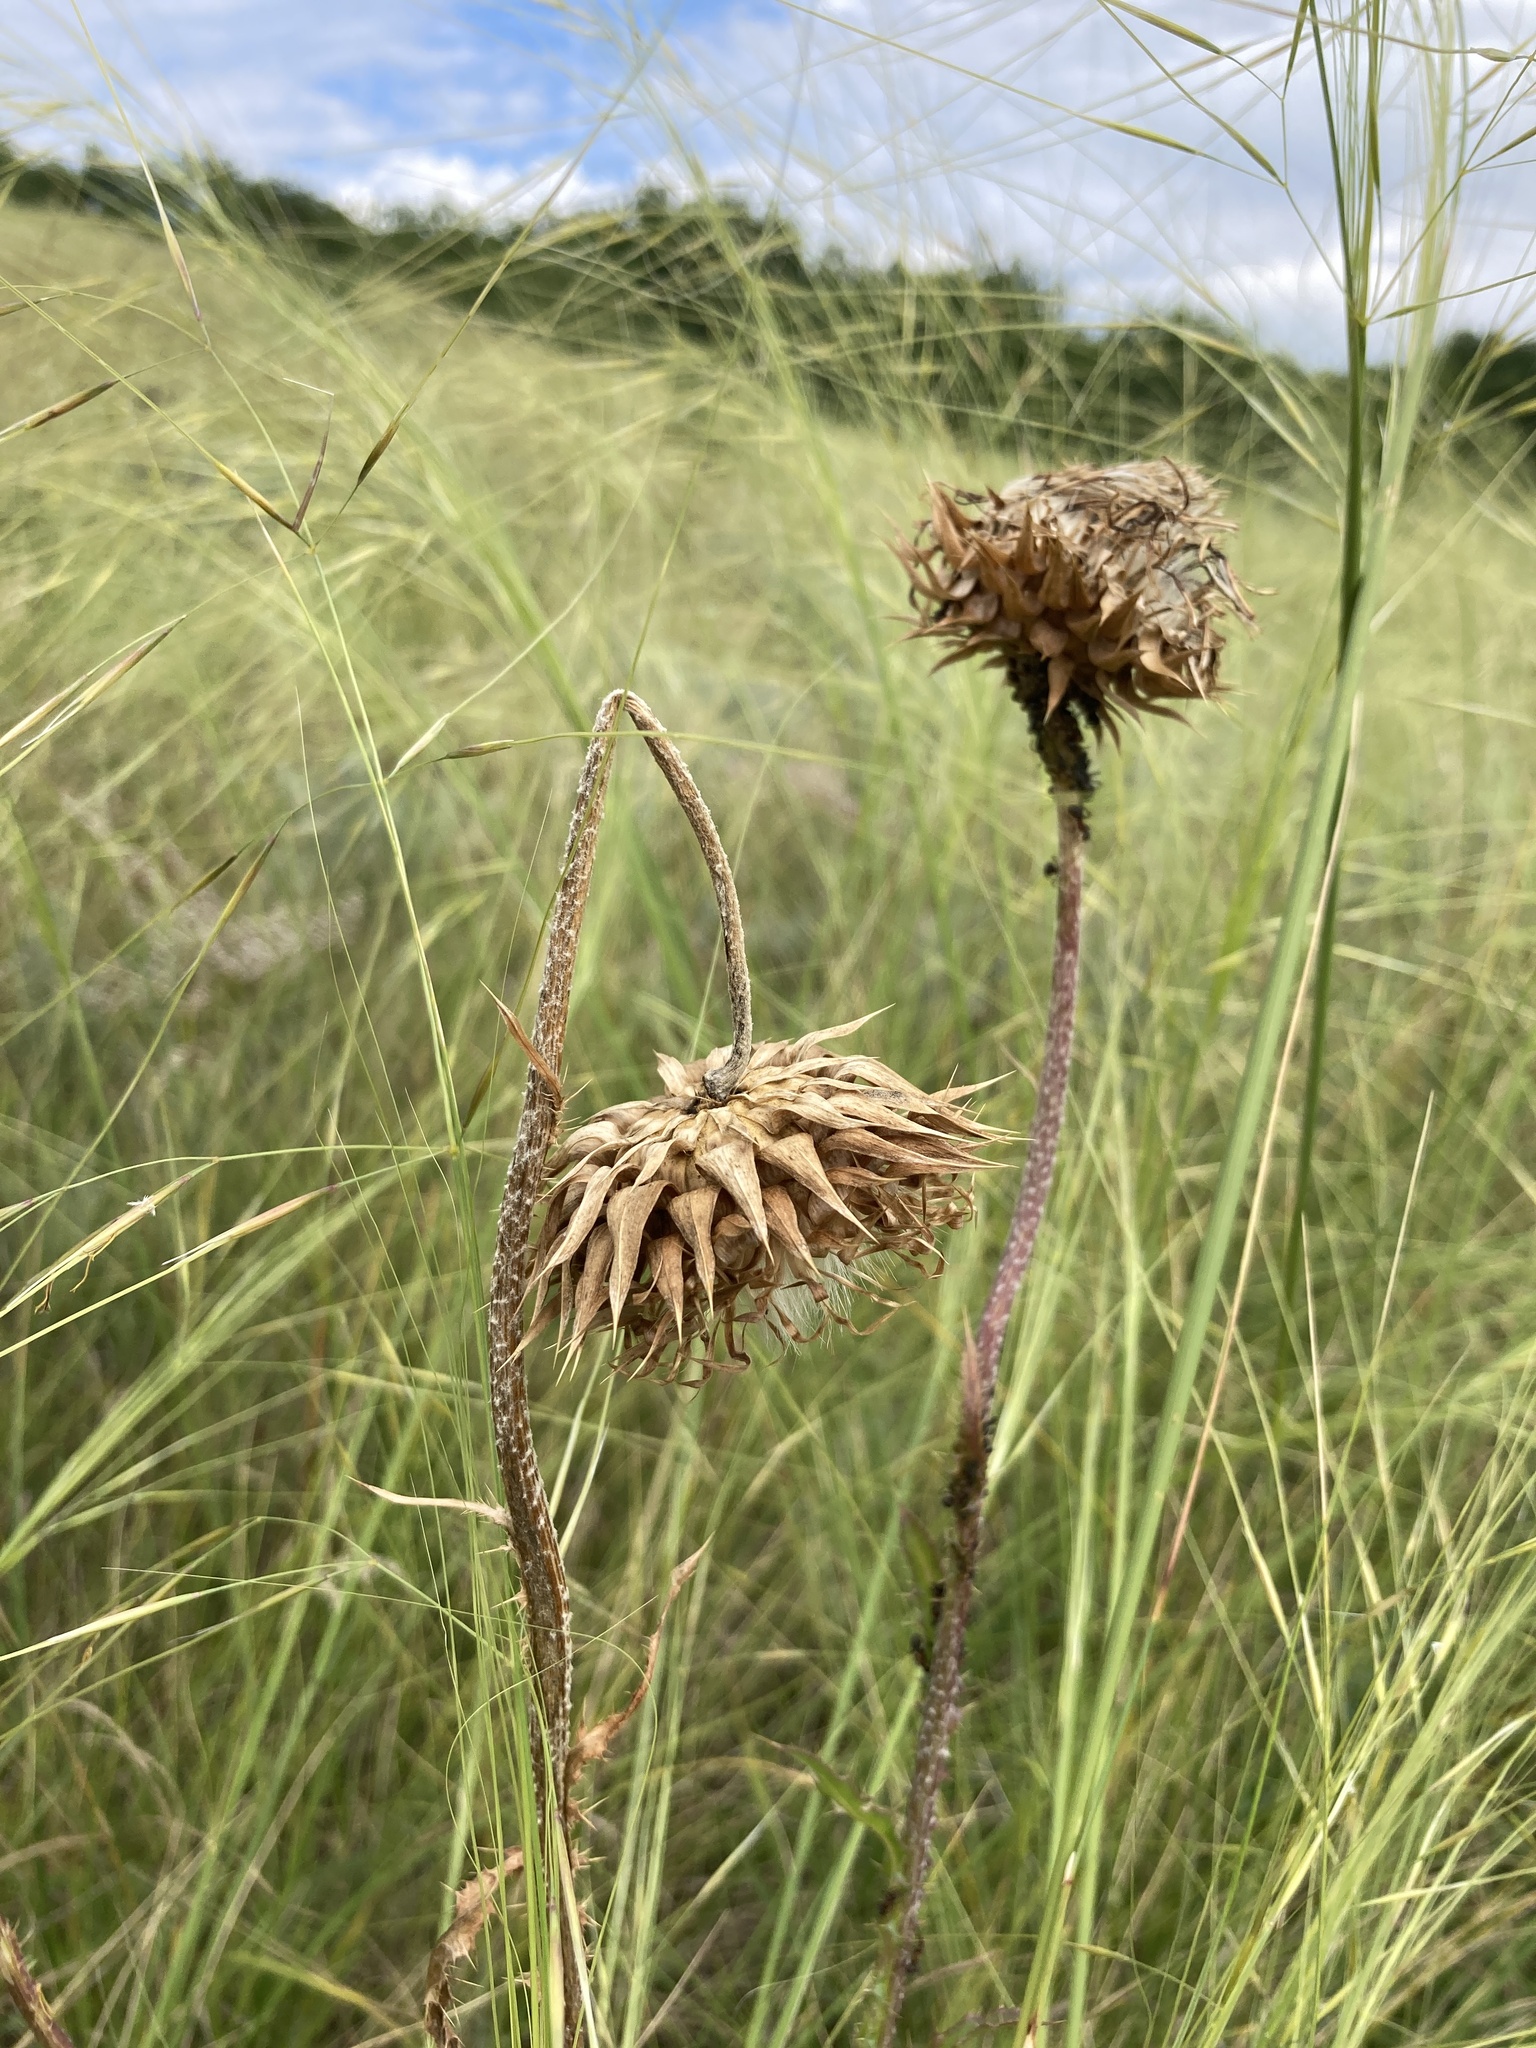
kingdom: Plantae
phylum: Tracheophyta
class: Magnoliopsida
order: Asterales
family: Asteraceae
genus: Carduus
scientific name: Carduus nutans
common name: Musk thistle
